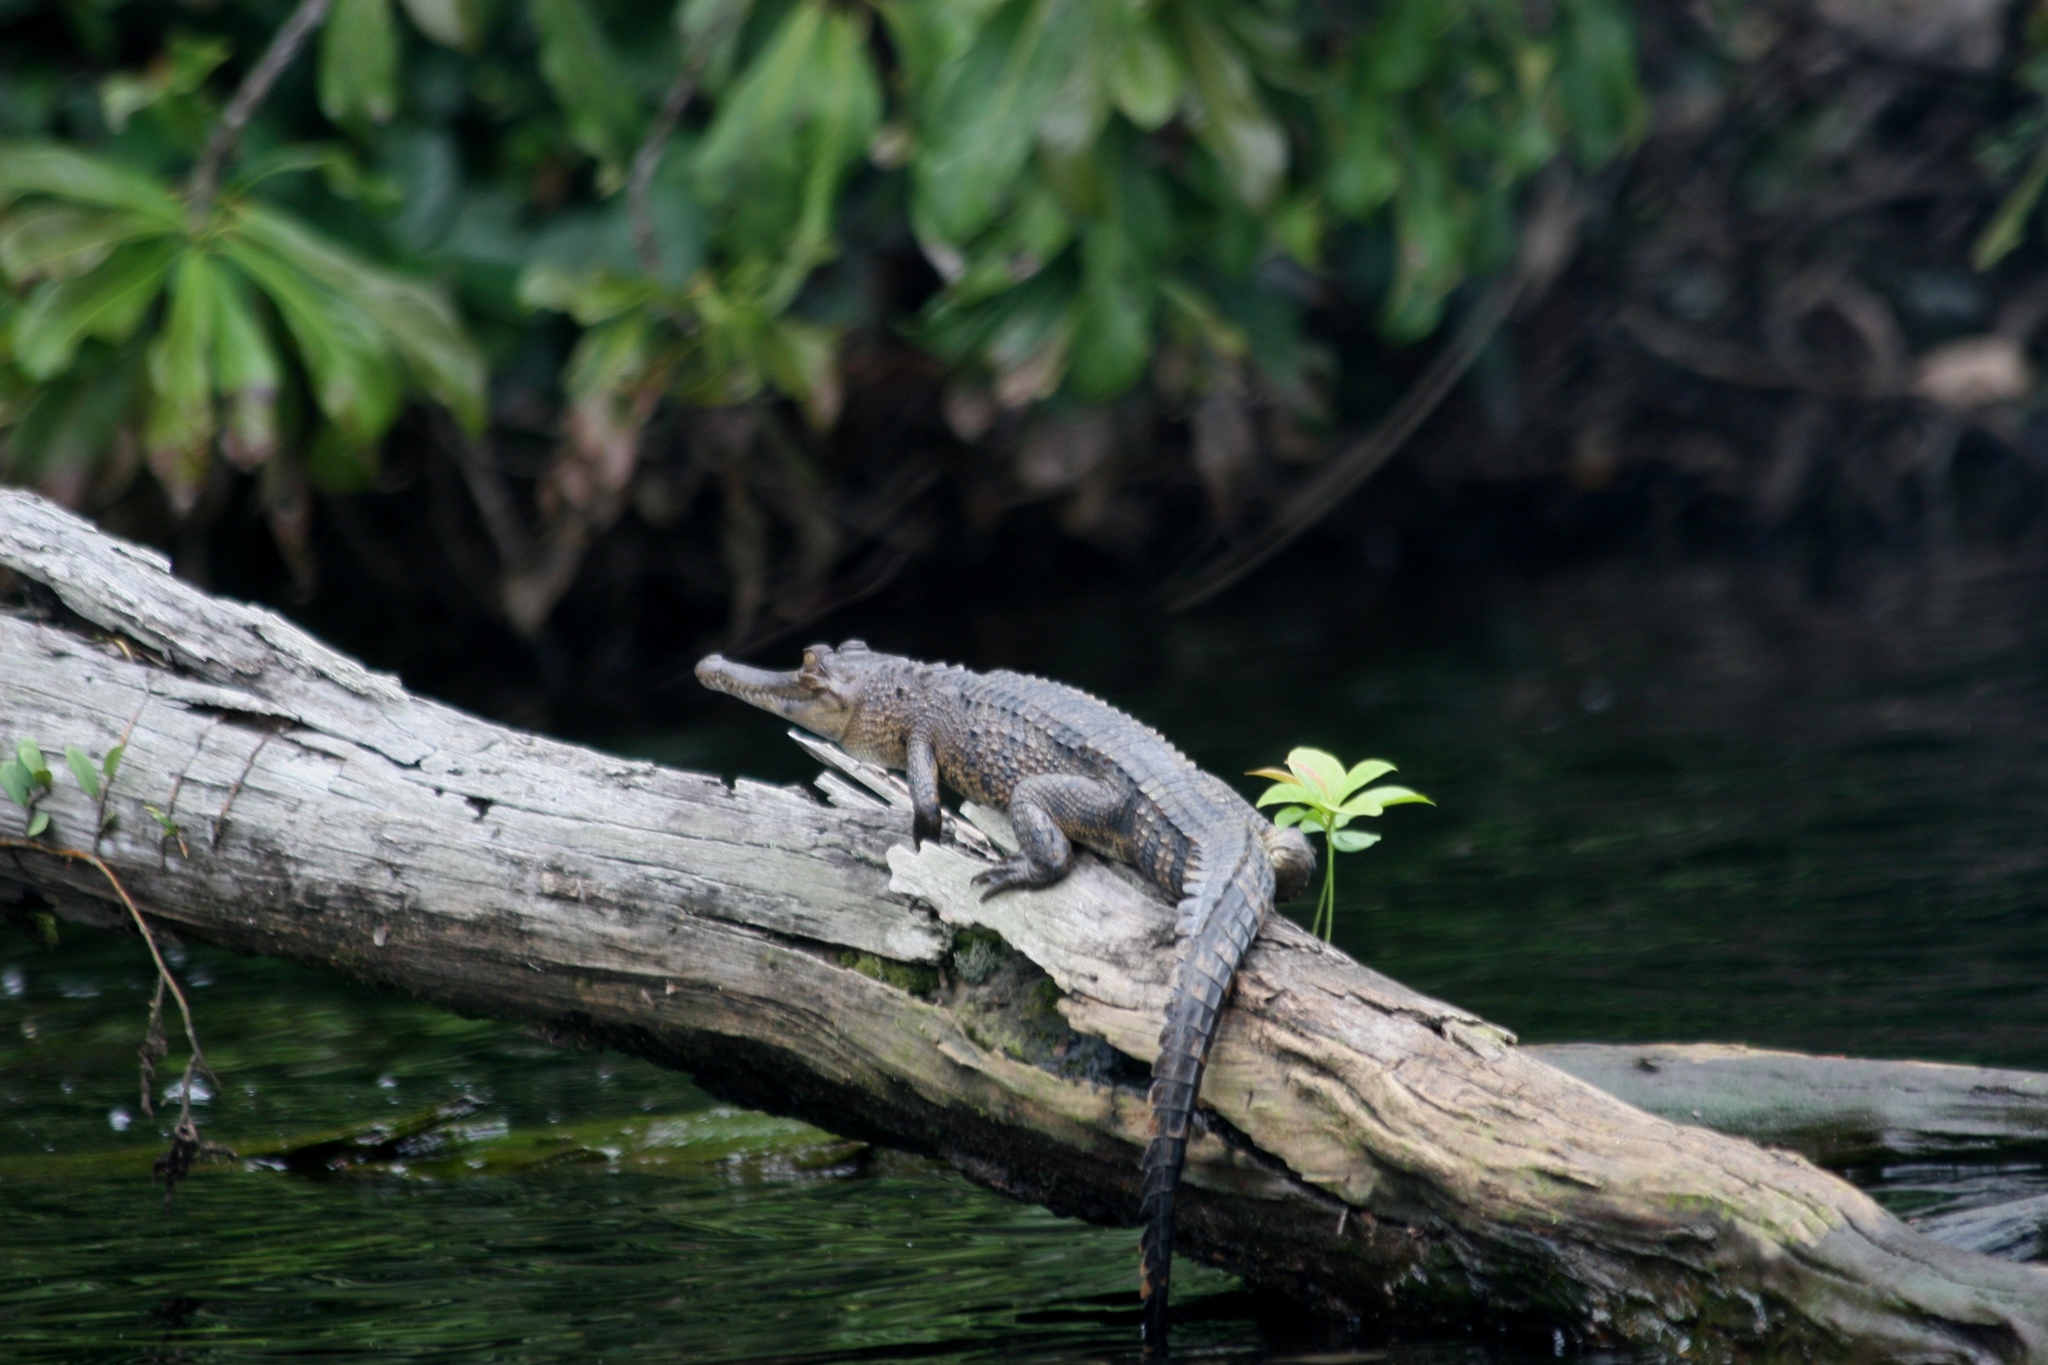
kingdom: Animalia
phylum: Chordata
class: Crocodylia
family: Crocodylidae
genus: Mecistops
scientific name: Mecistops leptorhynchus
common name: Central african slender-snouted crocodile
